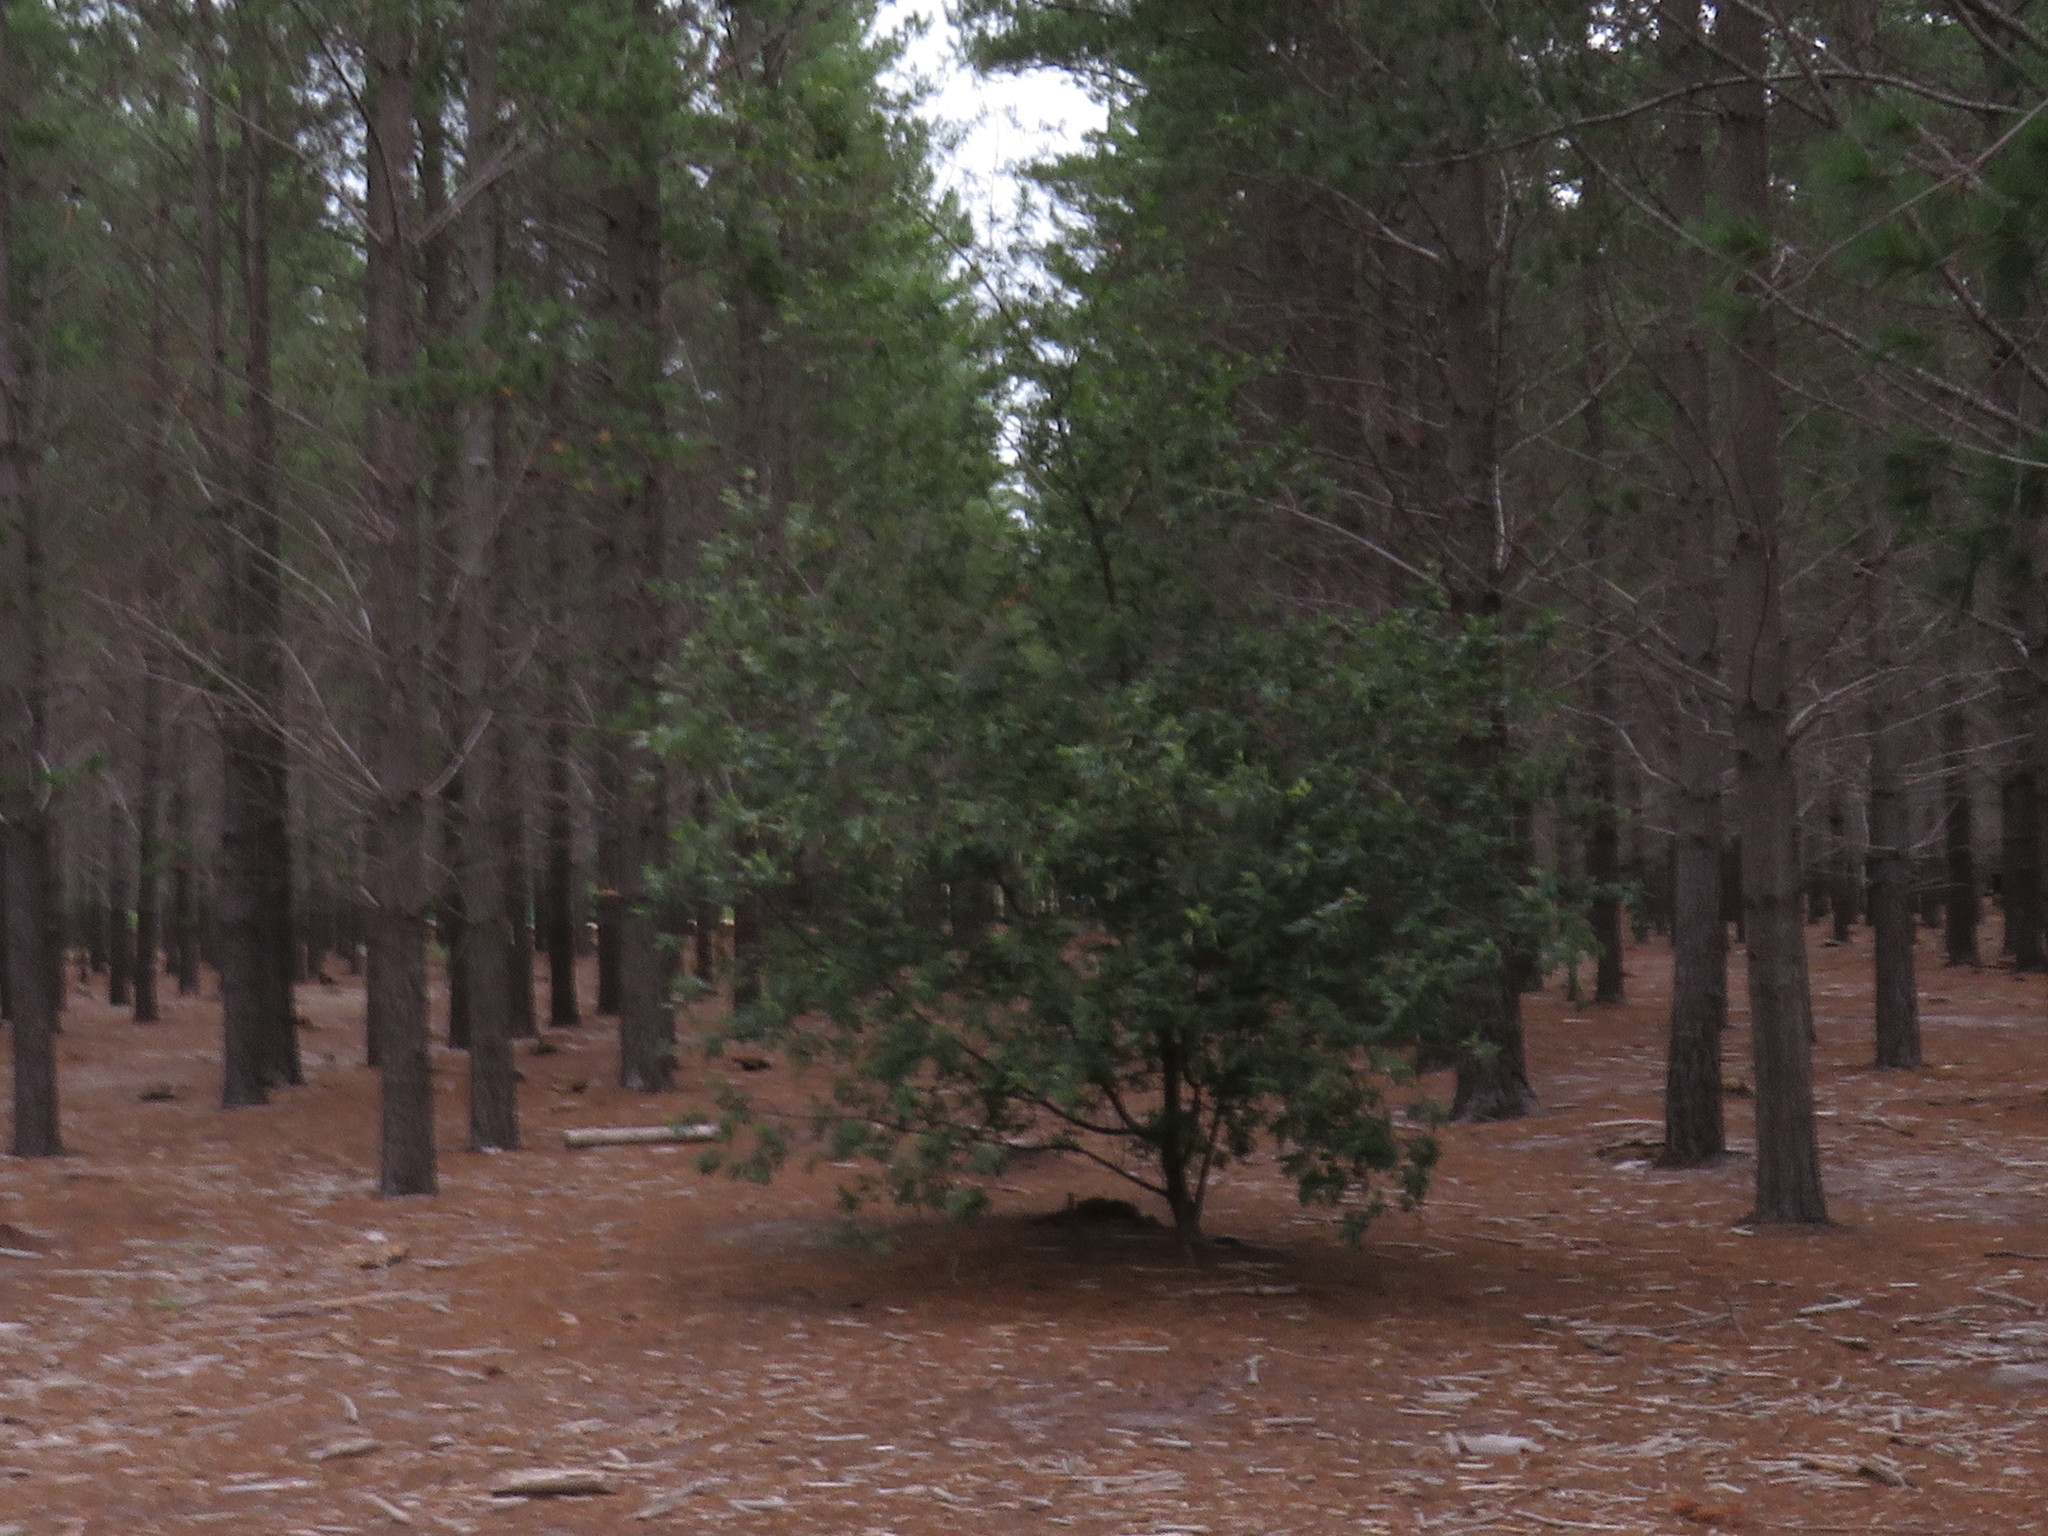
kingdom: Plantae
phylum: Tracheophyta
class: Magnoliopsida
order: Fabales
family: Fabaceae
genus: Virgilia
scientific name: Virgilia oroboides
